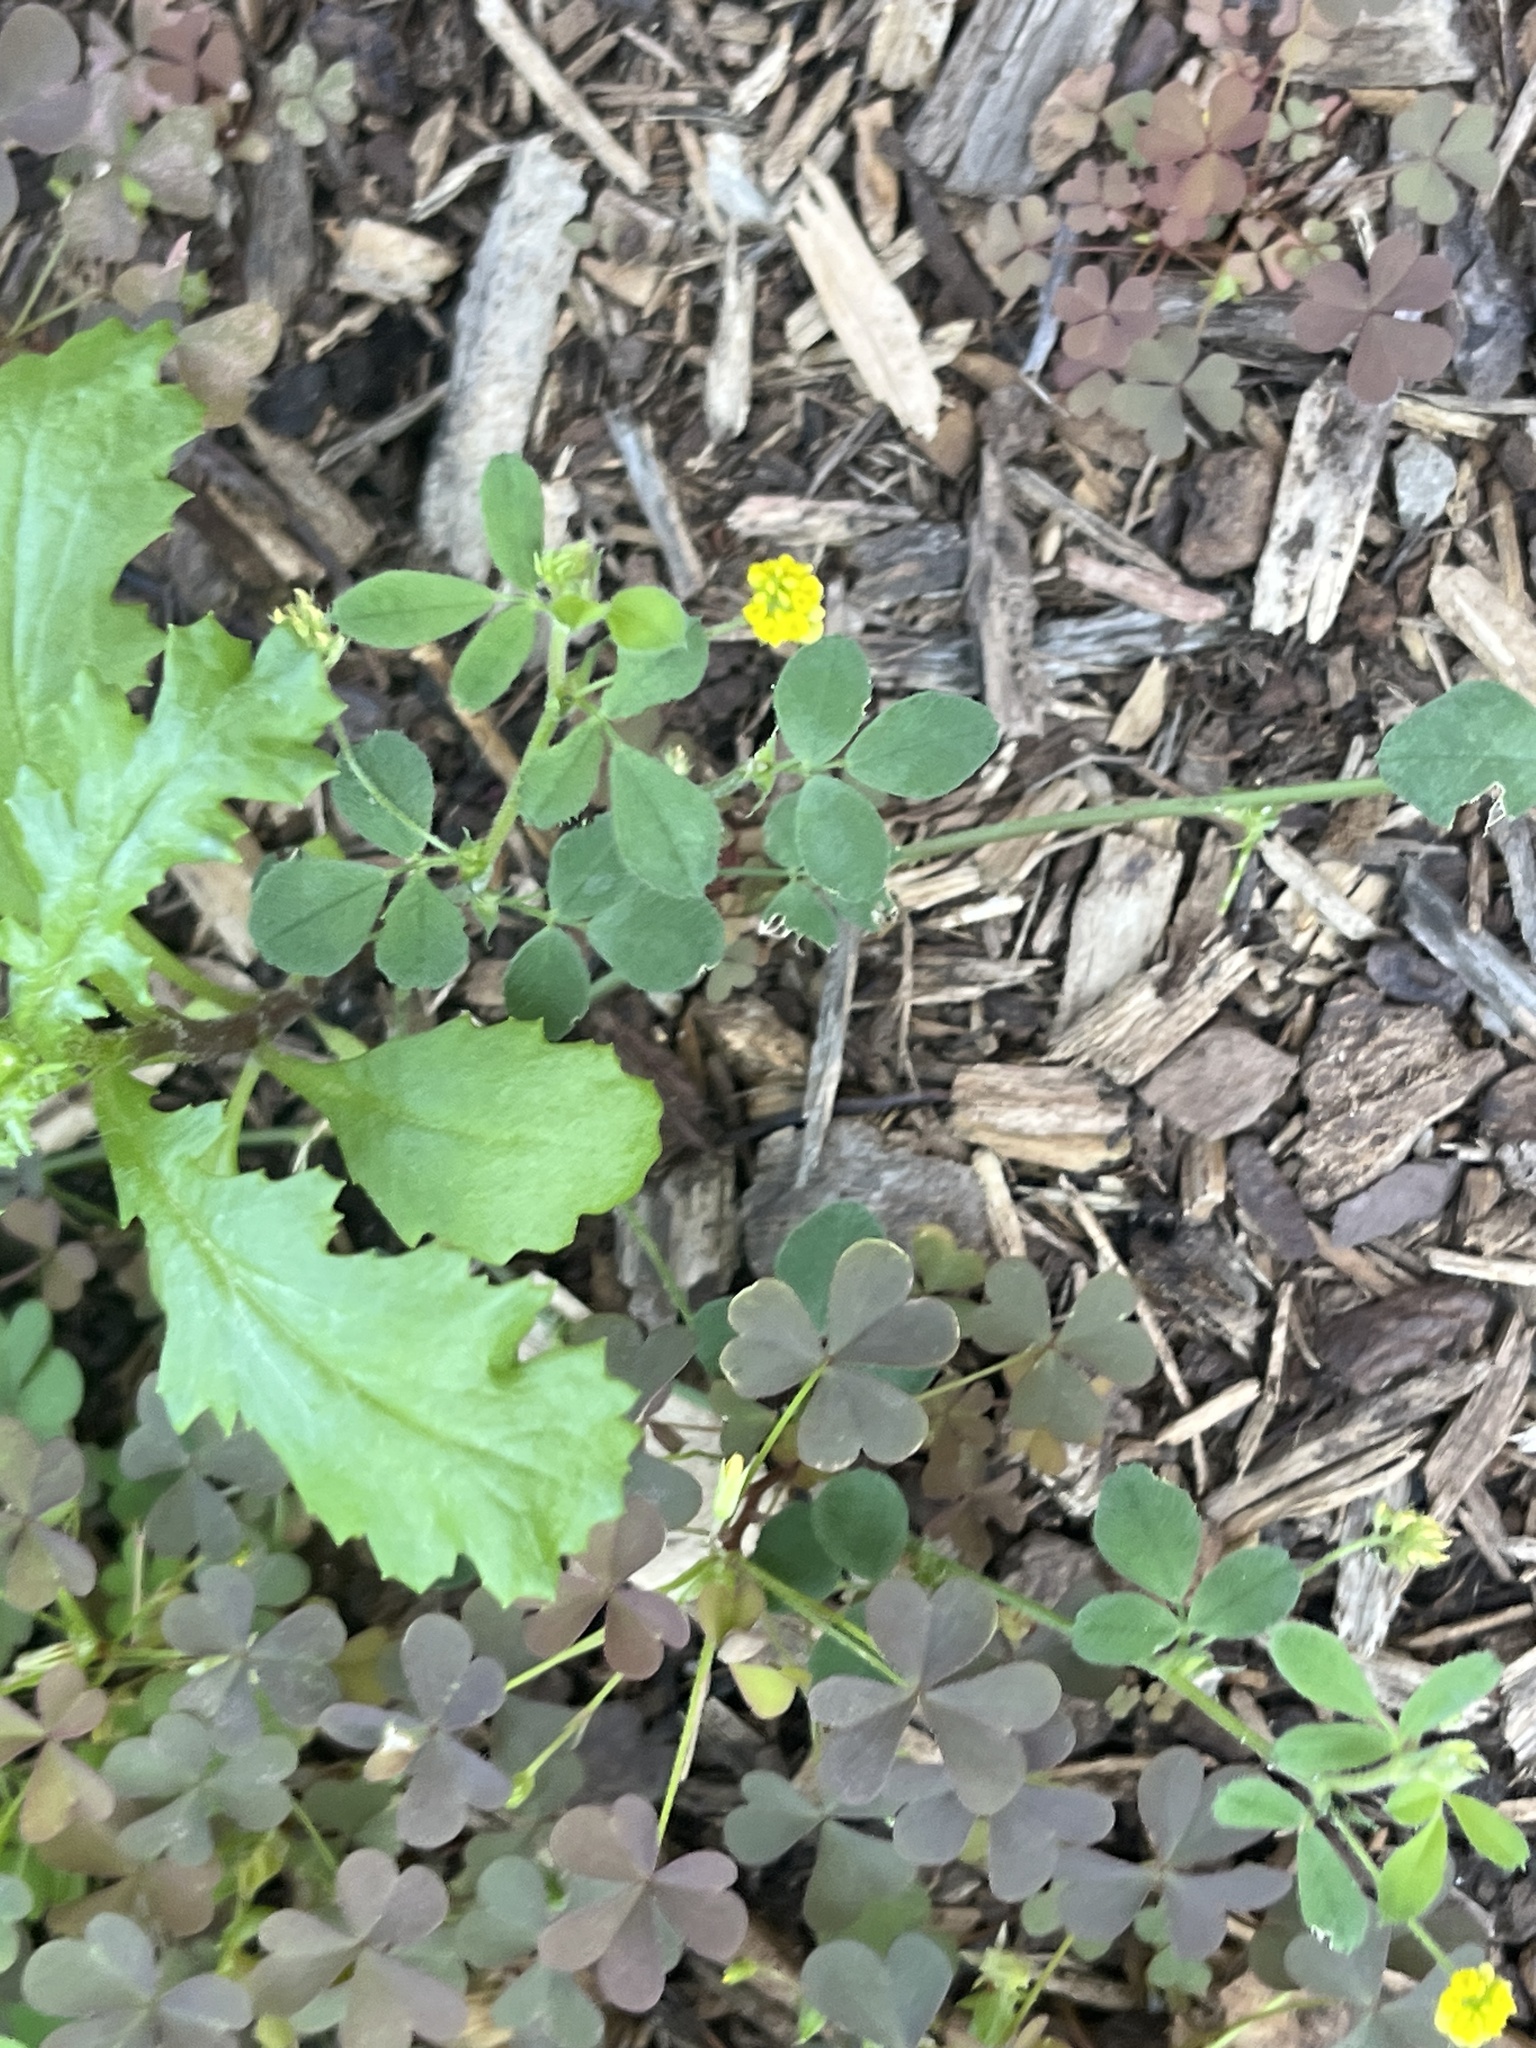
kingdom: Plantae
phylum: Tracheophyta
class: Magnoliopsida
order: Fabales
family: Fabaceae
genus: Medicago
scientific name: Medicago lupulina
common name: Black medick
